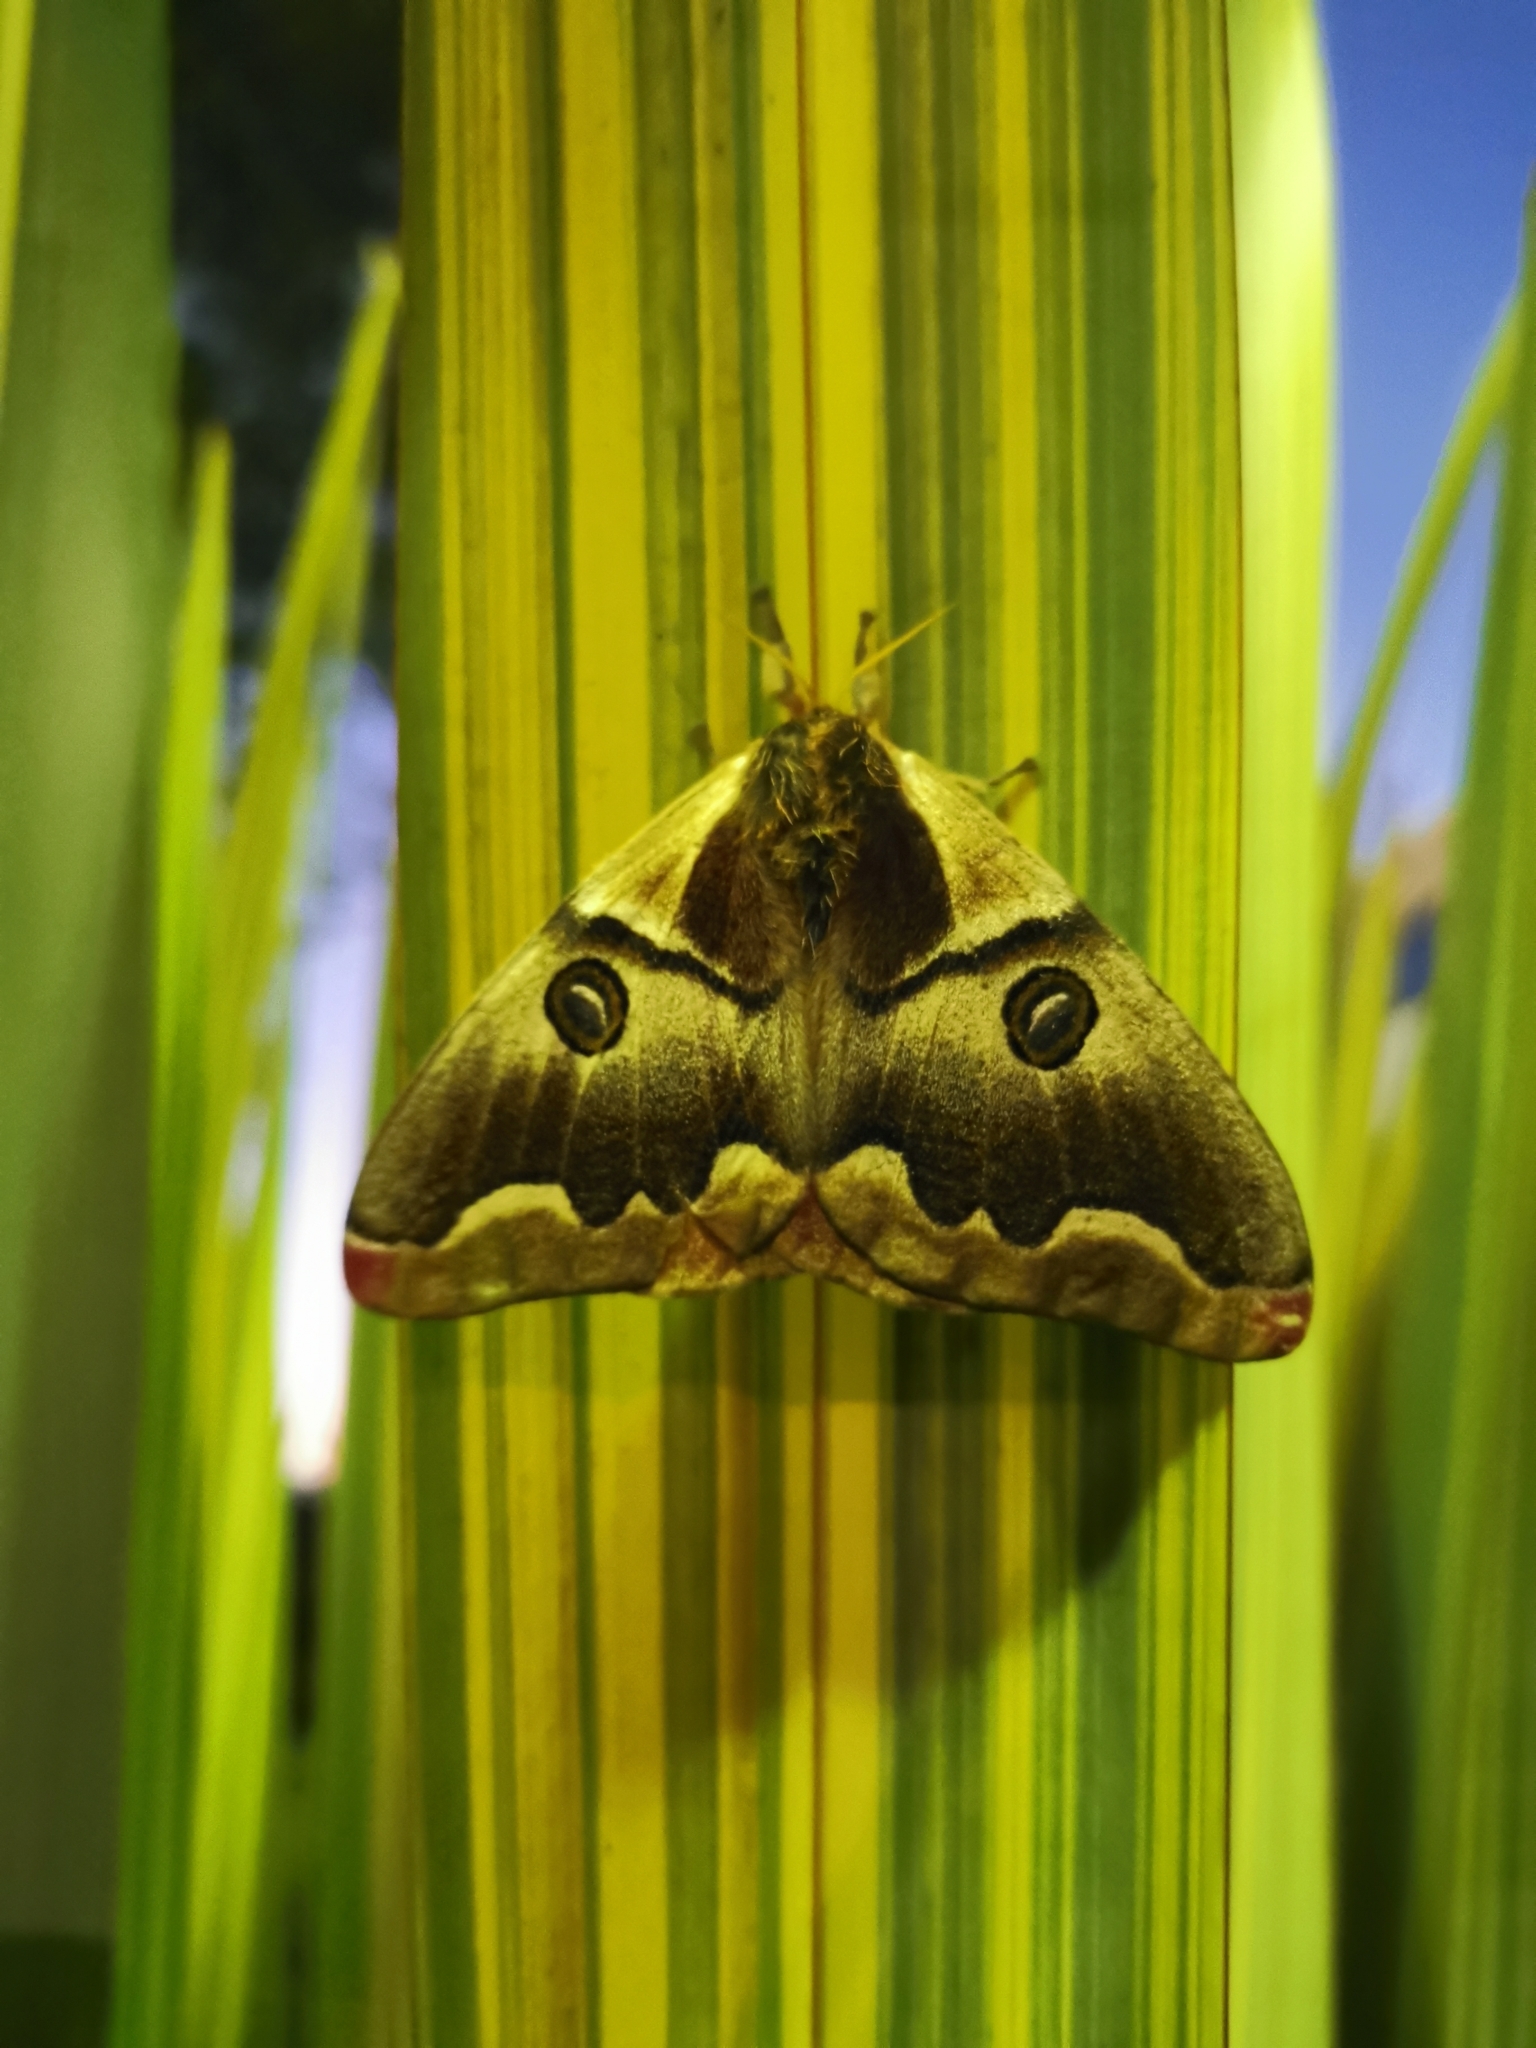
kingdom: Animalia
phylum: Arthropoda
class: Insecta
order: Lepidoptera
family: Saturniidae
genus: Polythysana
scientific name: Polythysana cinerascens
